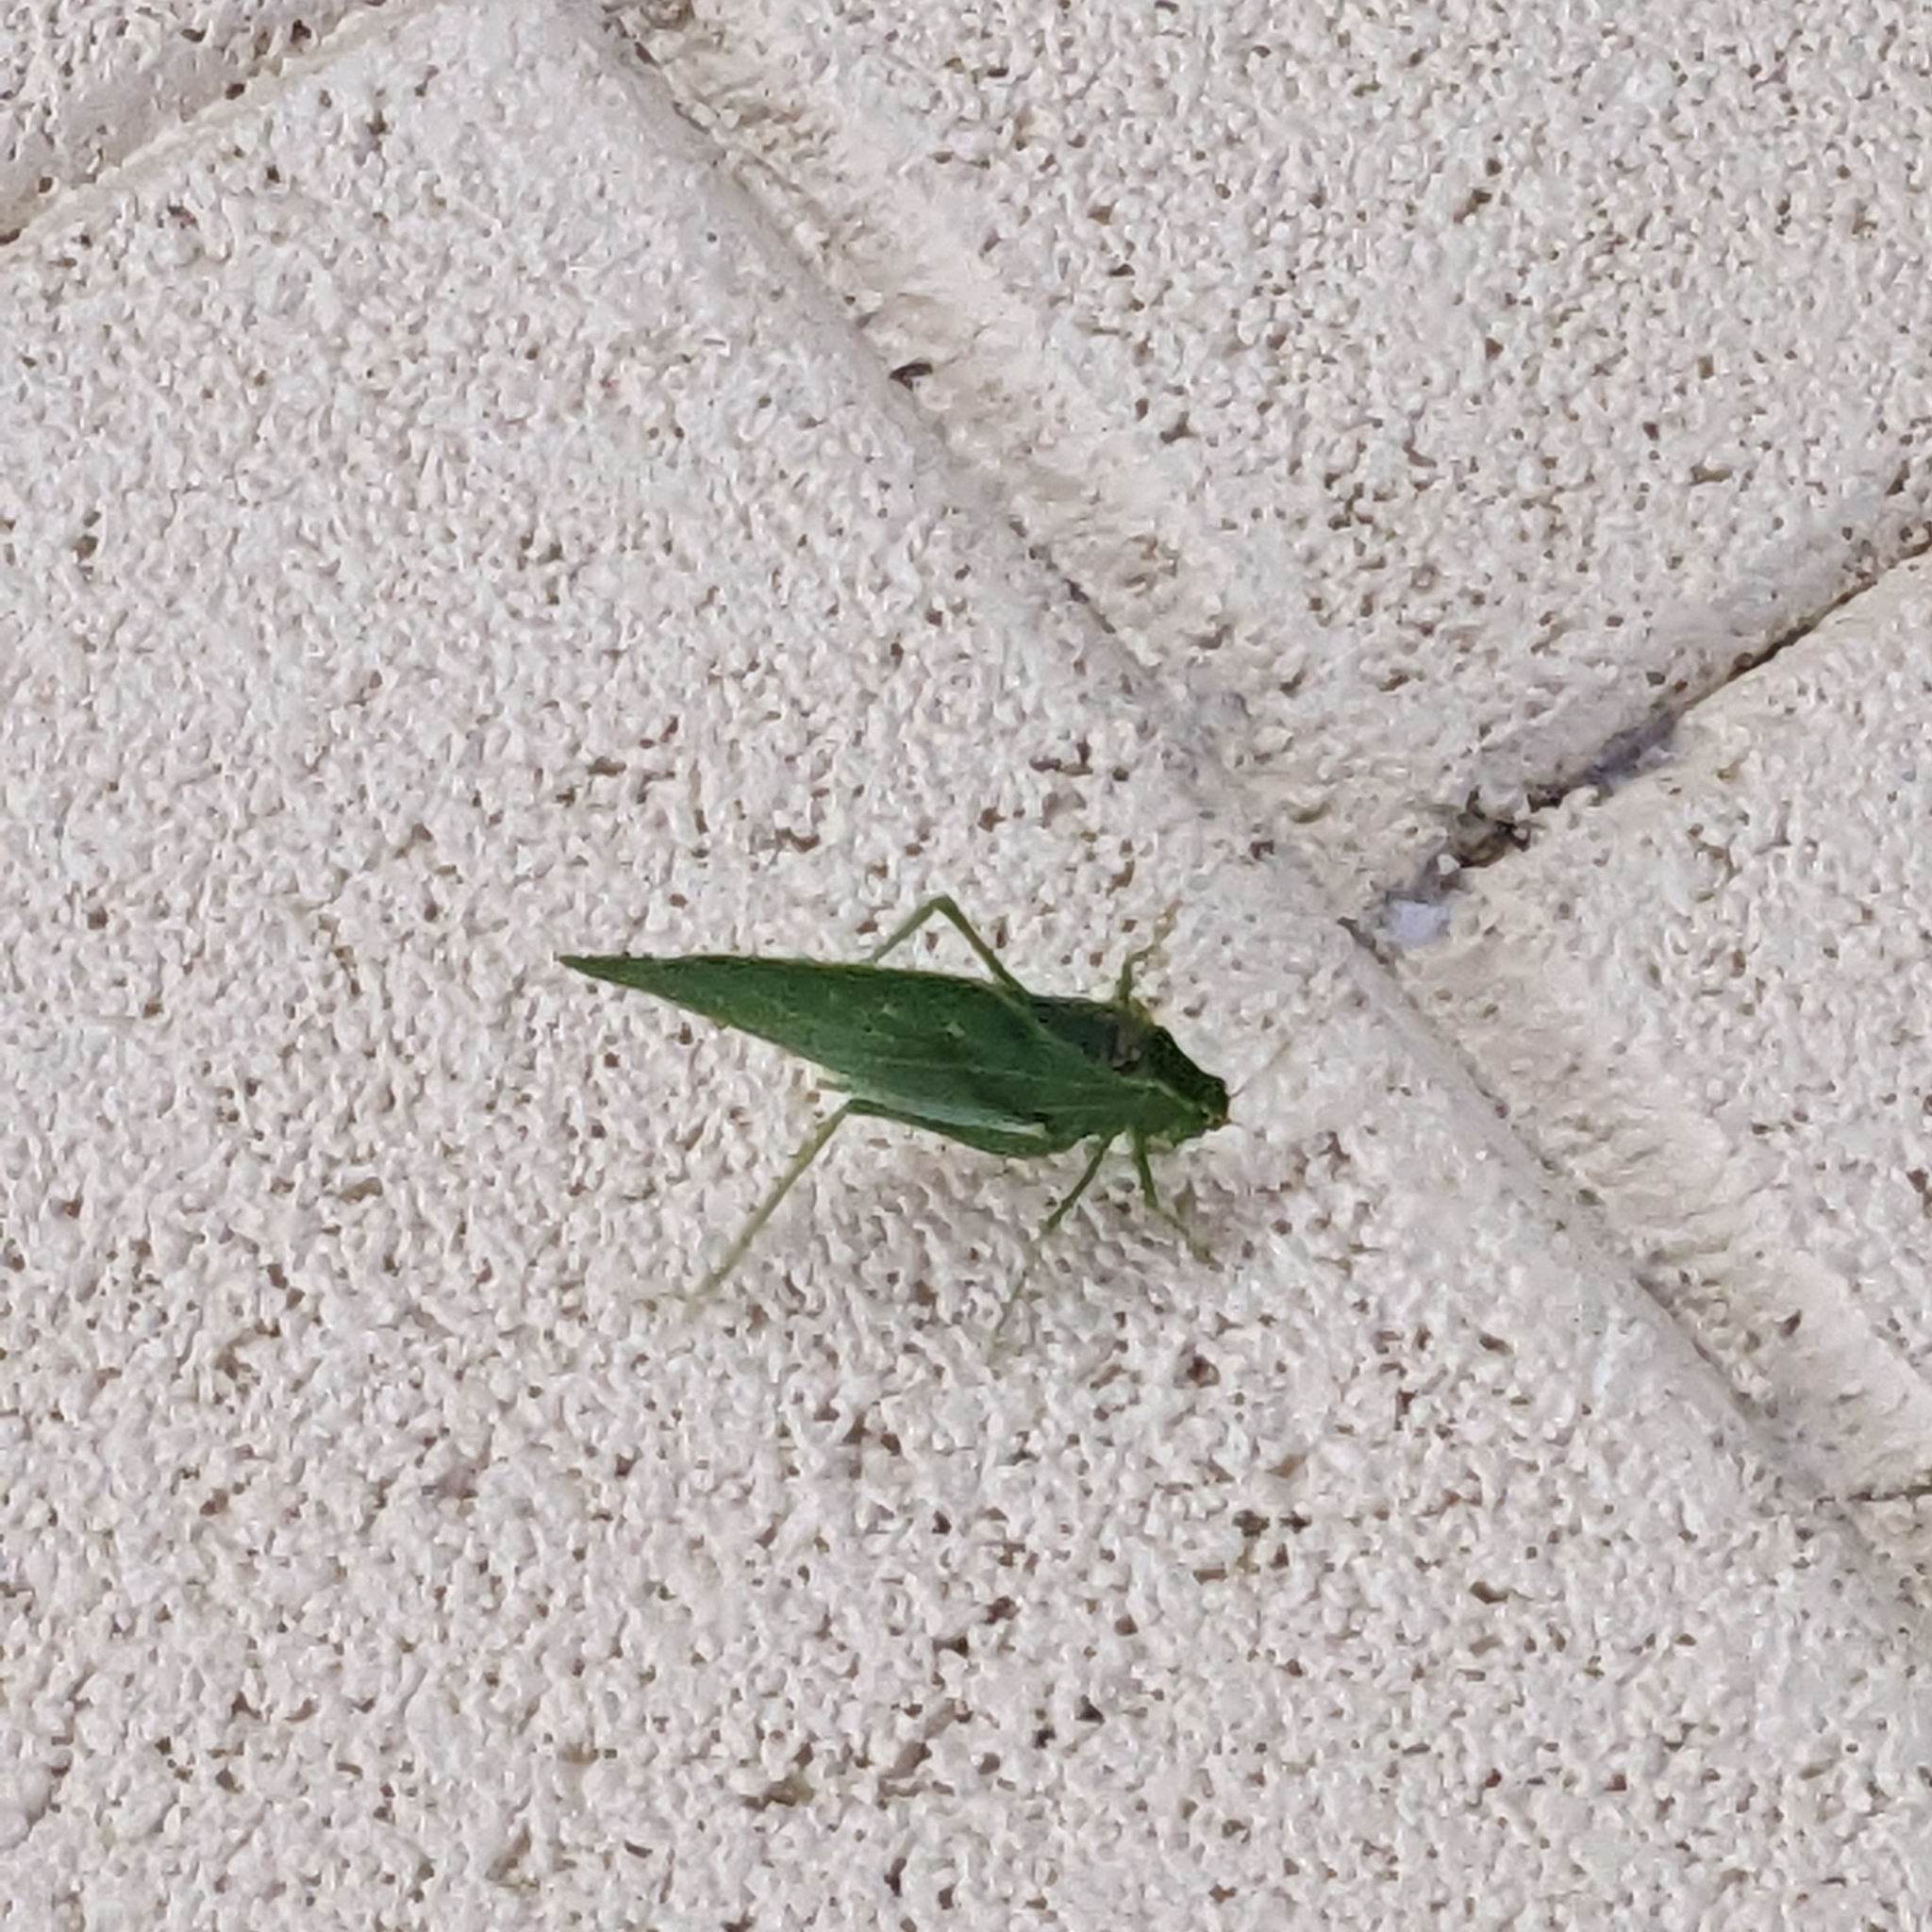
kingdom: Animalia
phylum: Arthropoda
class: Insecta
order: Orthoptera
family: Tettigoniidae
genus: Microcentrum
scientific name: Microcentrum retinerve
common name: Angular-winged katydid
